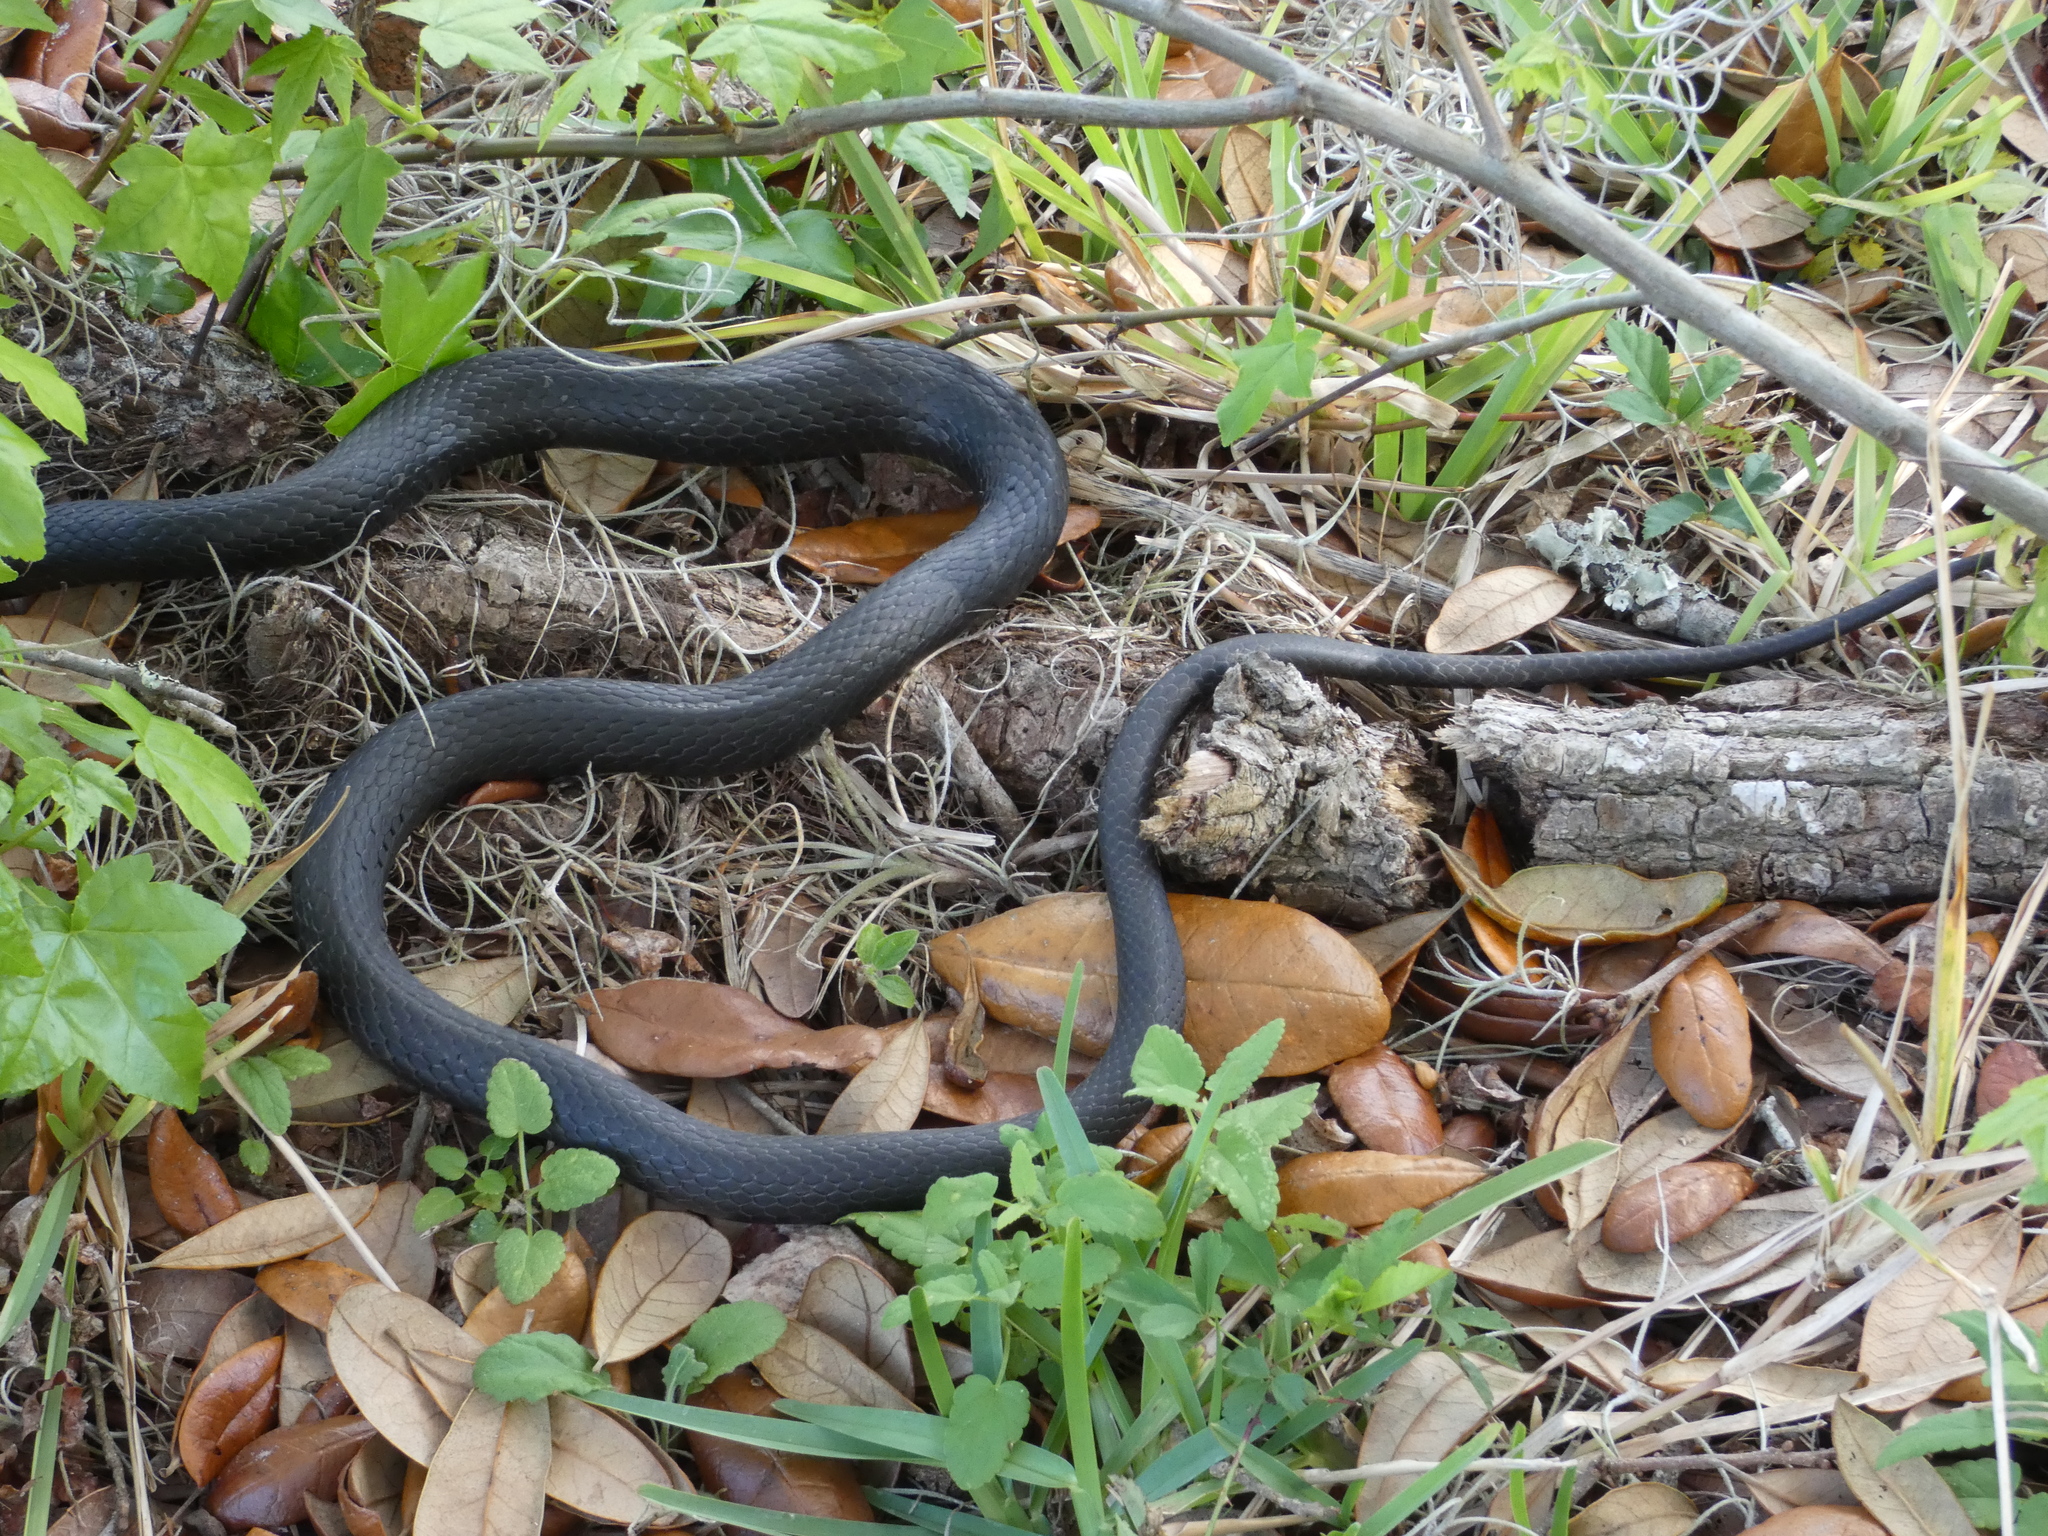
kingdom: Animalia
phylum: Chordata
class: Squamata
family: Colubridae
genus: Coluber
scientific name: Coluber constrictor
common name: Eastern racer
